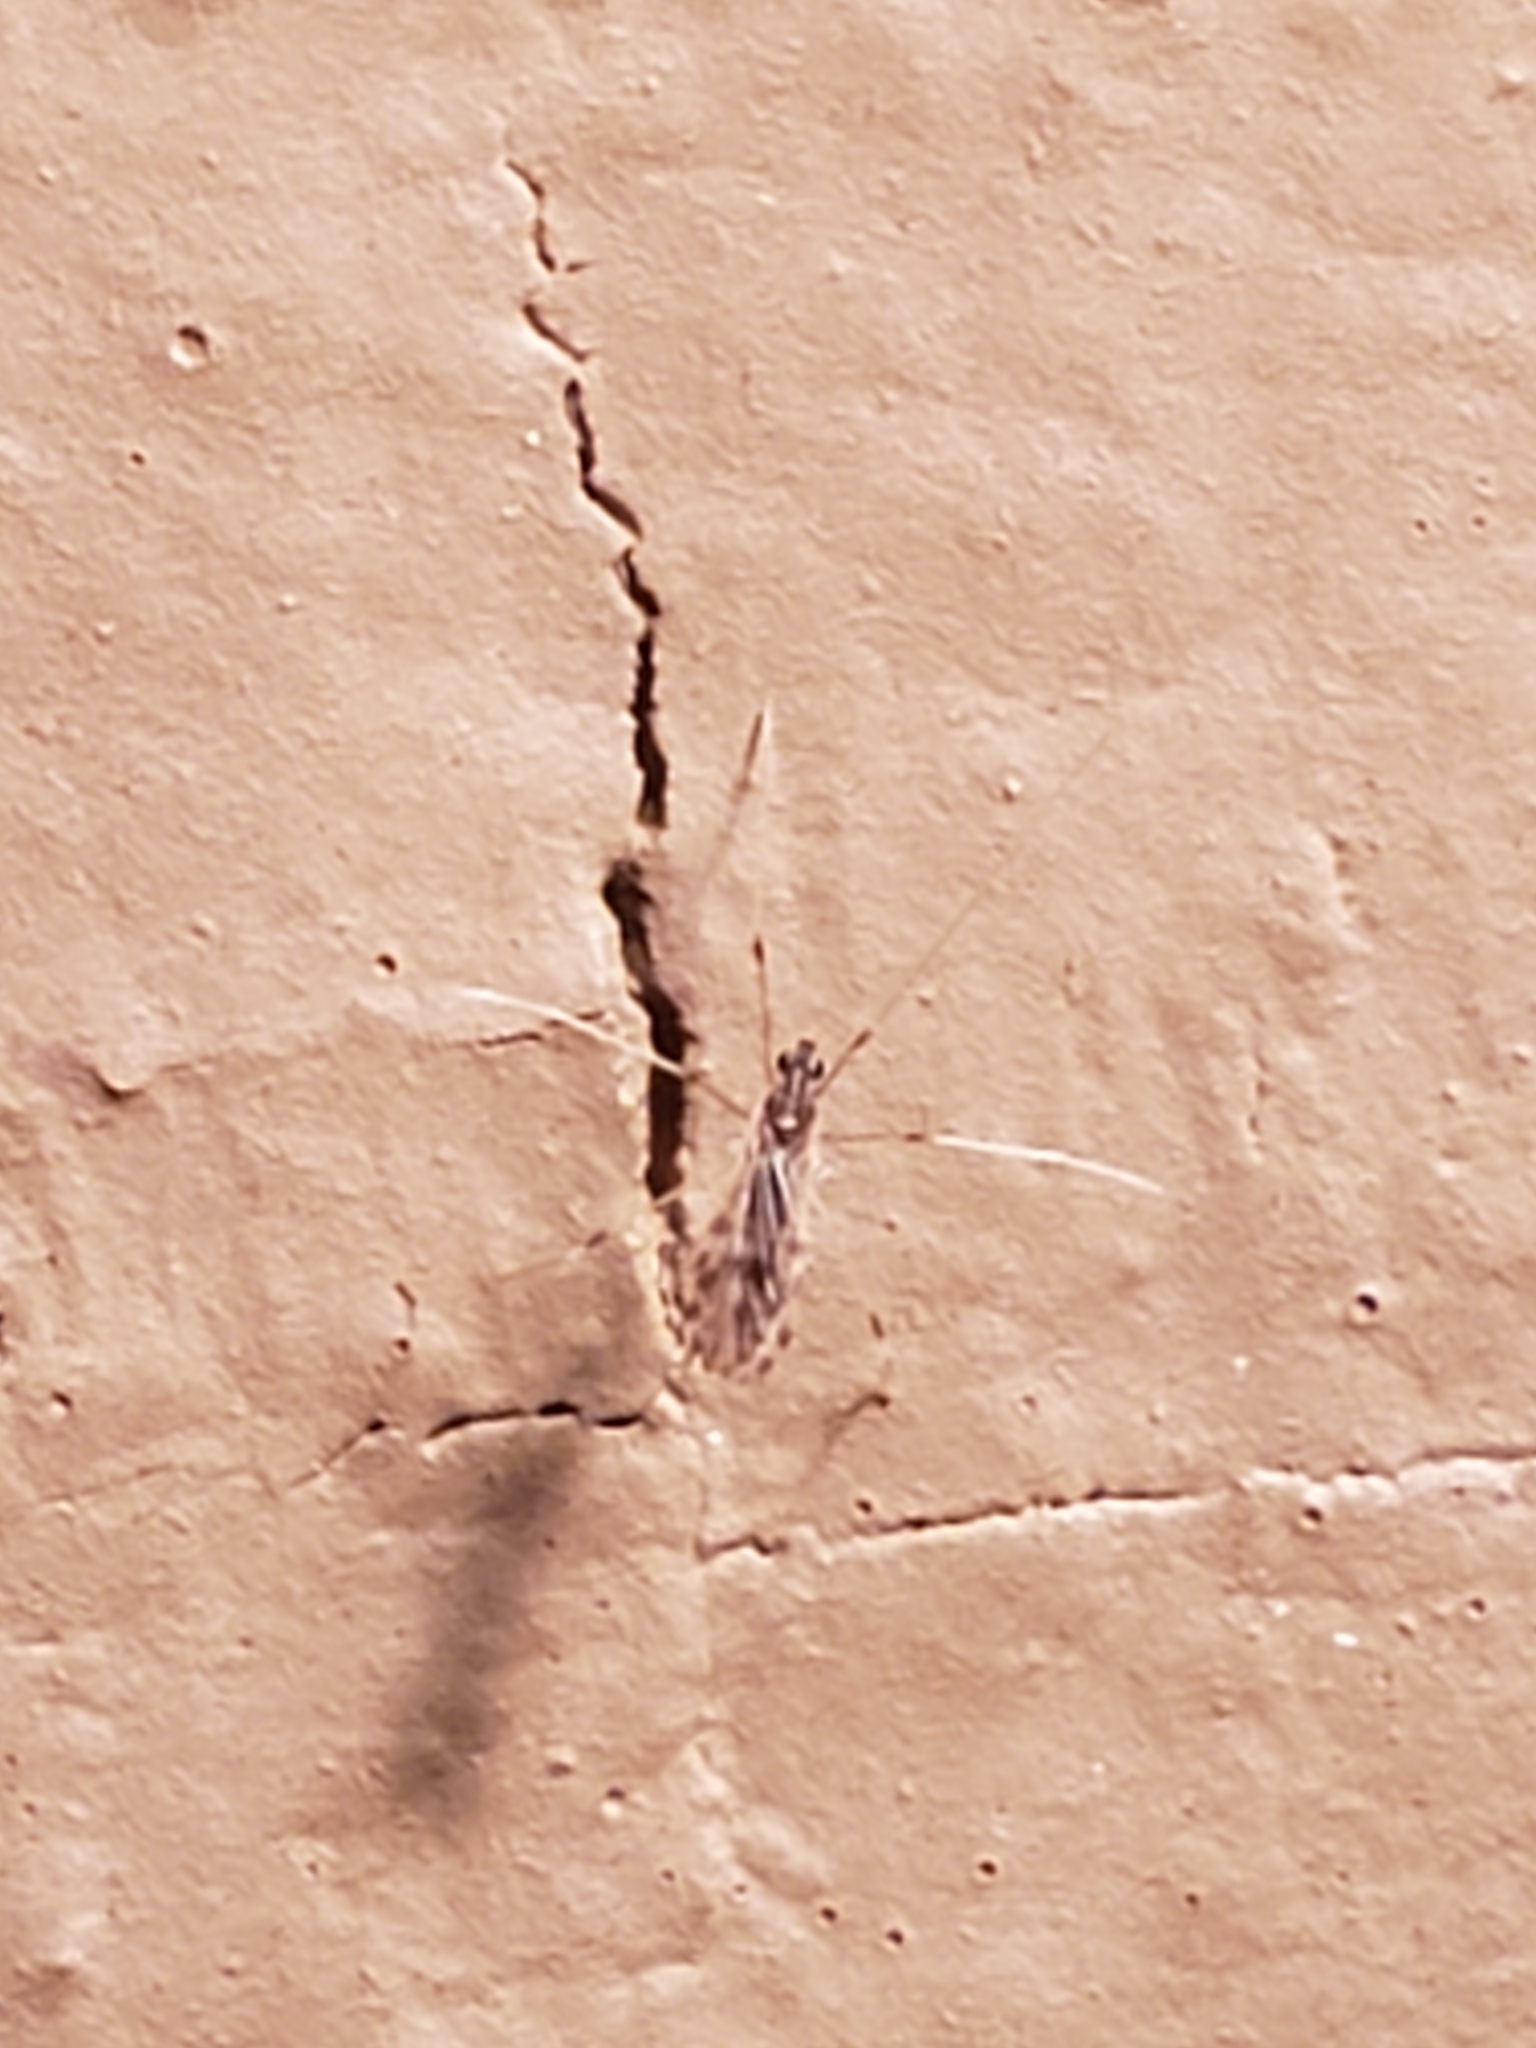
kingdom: Animalia
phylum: Arthropoda
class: Insecta
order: Diptera
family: Limoniidae
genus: Erioptera
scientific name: Erioptera parva
